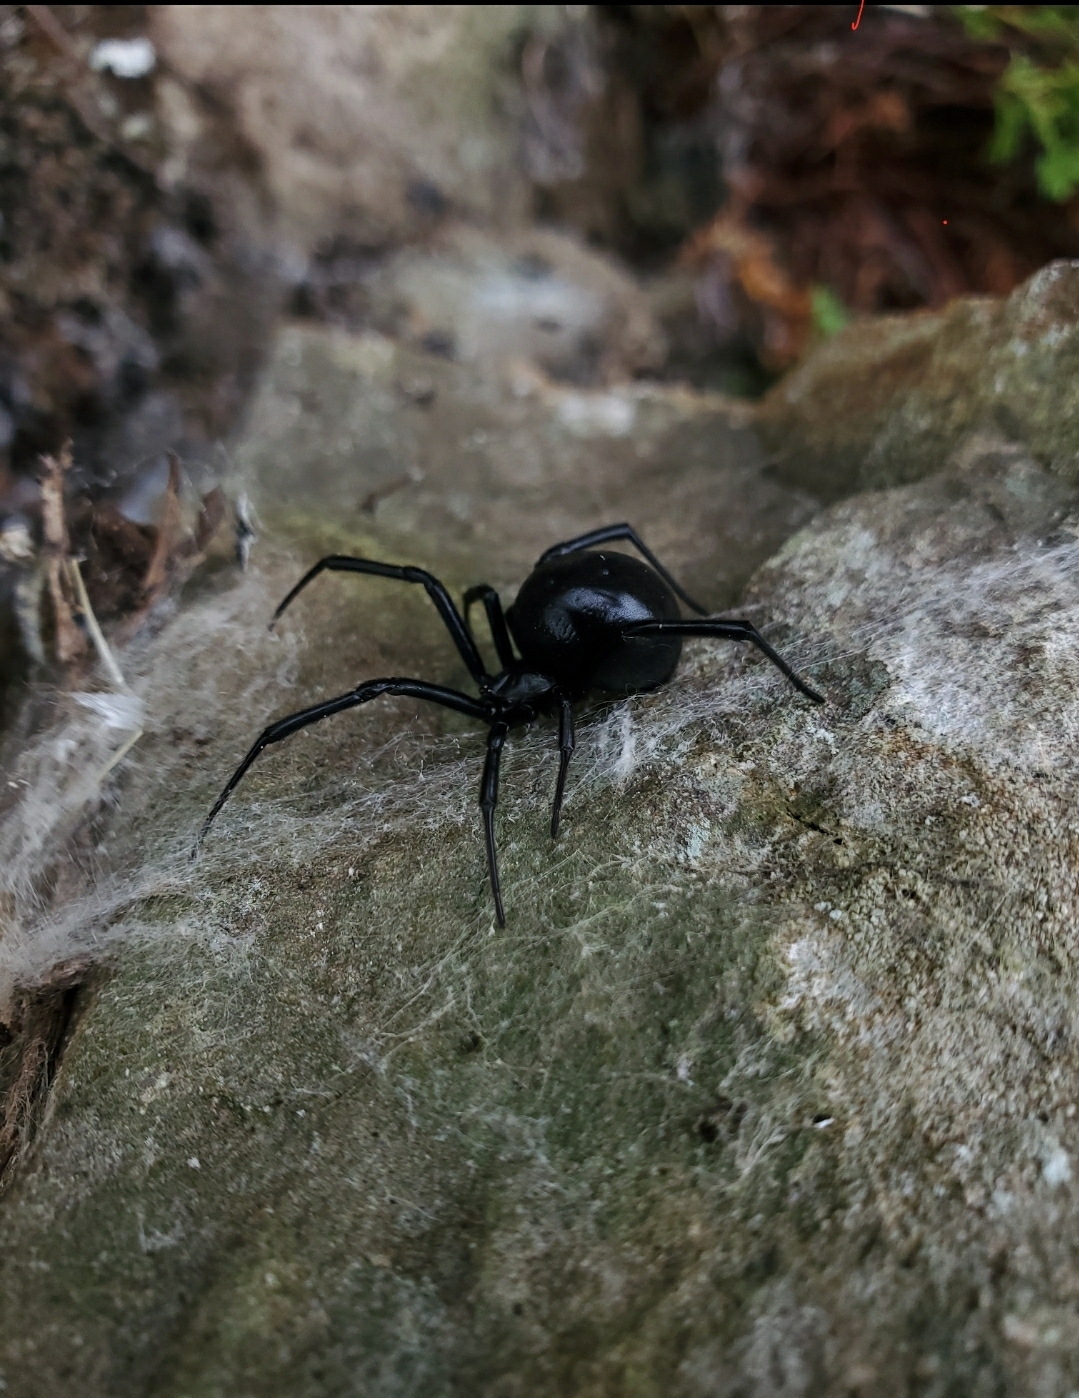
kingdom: Animalia
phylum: Arthropoda
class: Arachnida
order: Araneae
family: Theridiidae
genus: Latrodectus
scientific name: Latrodectus hesperus
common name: Western black widow
